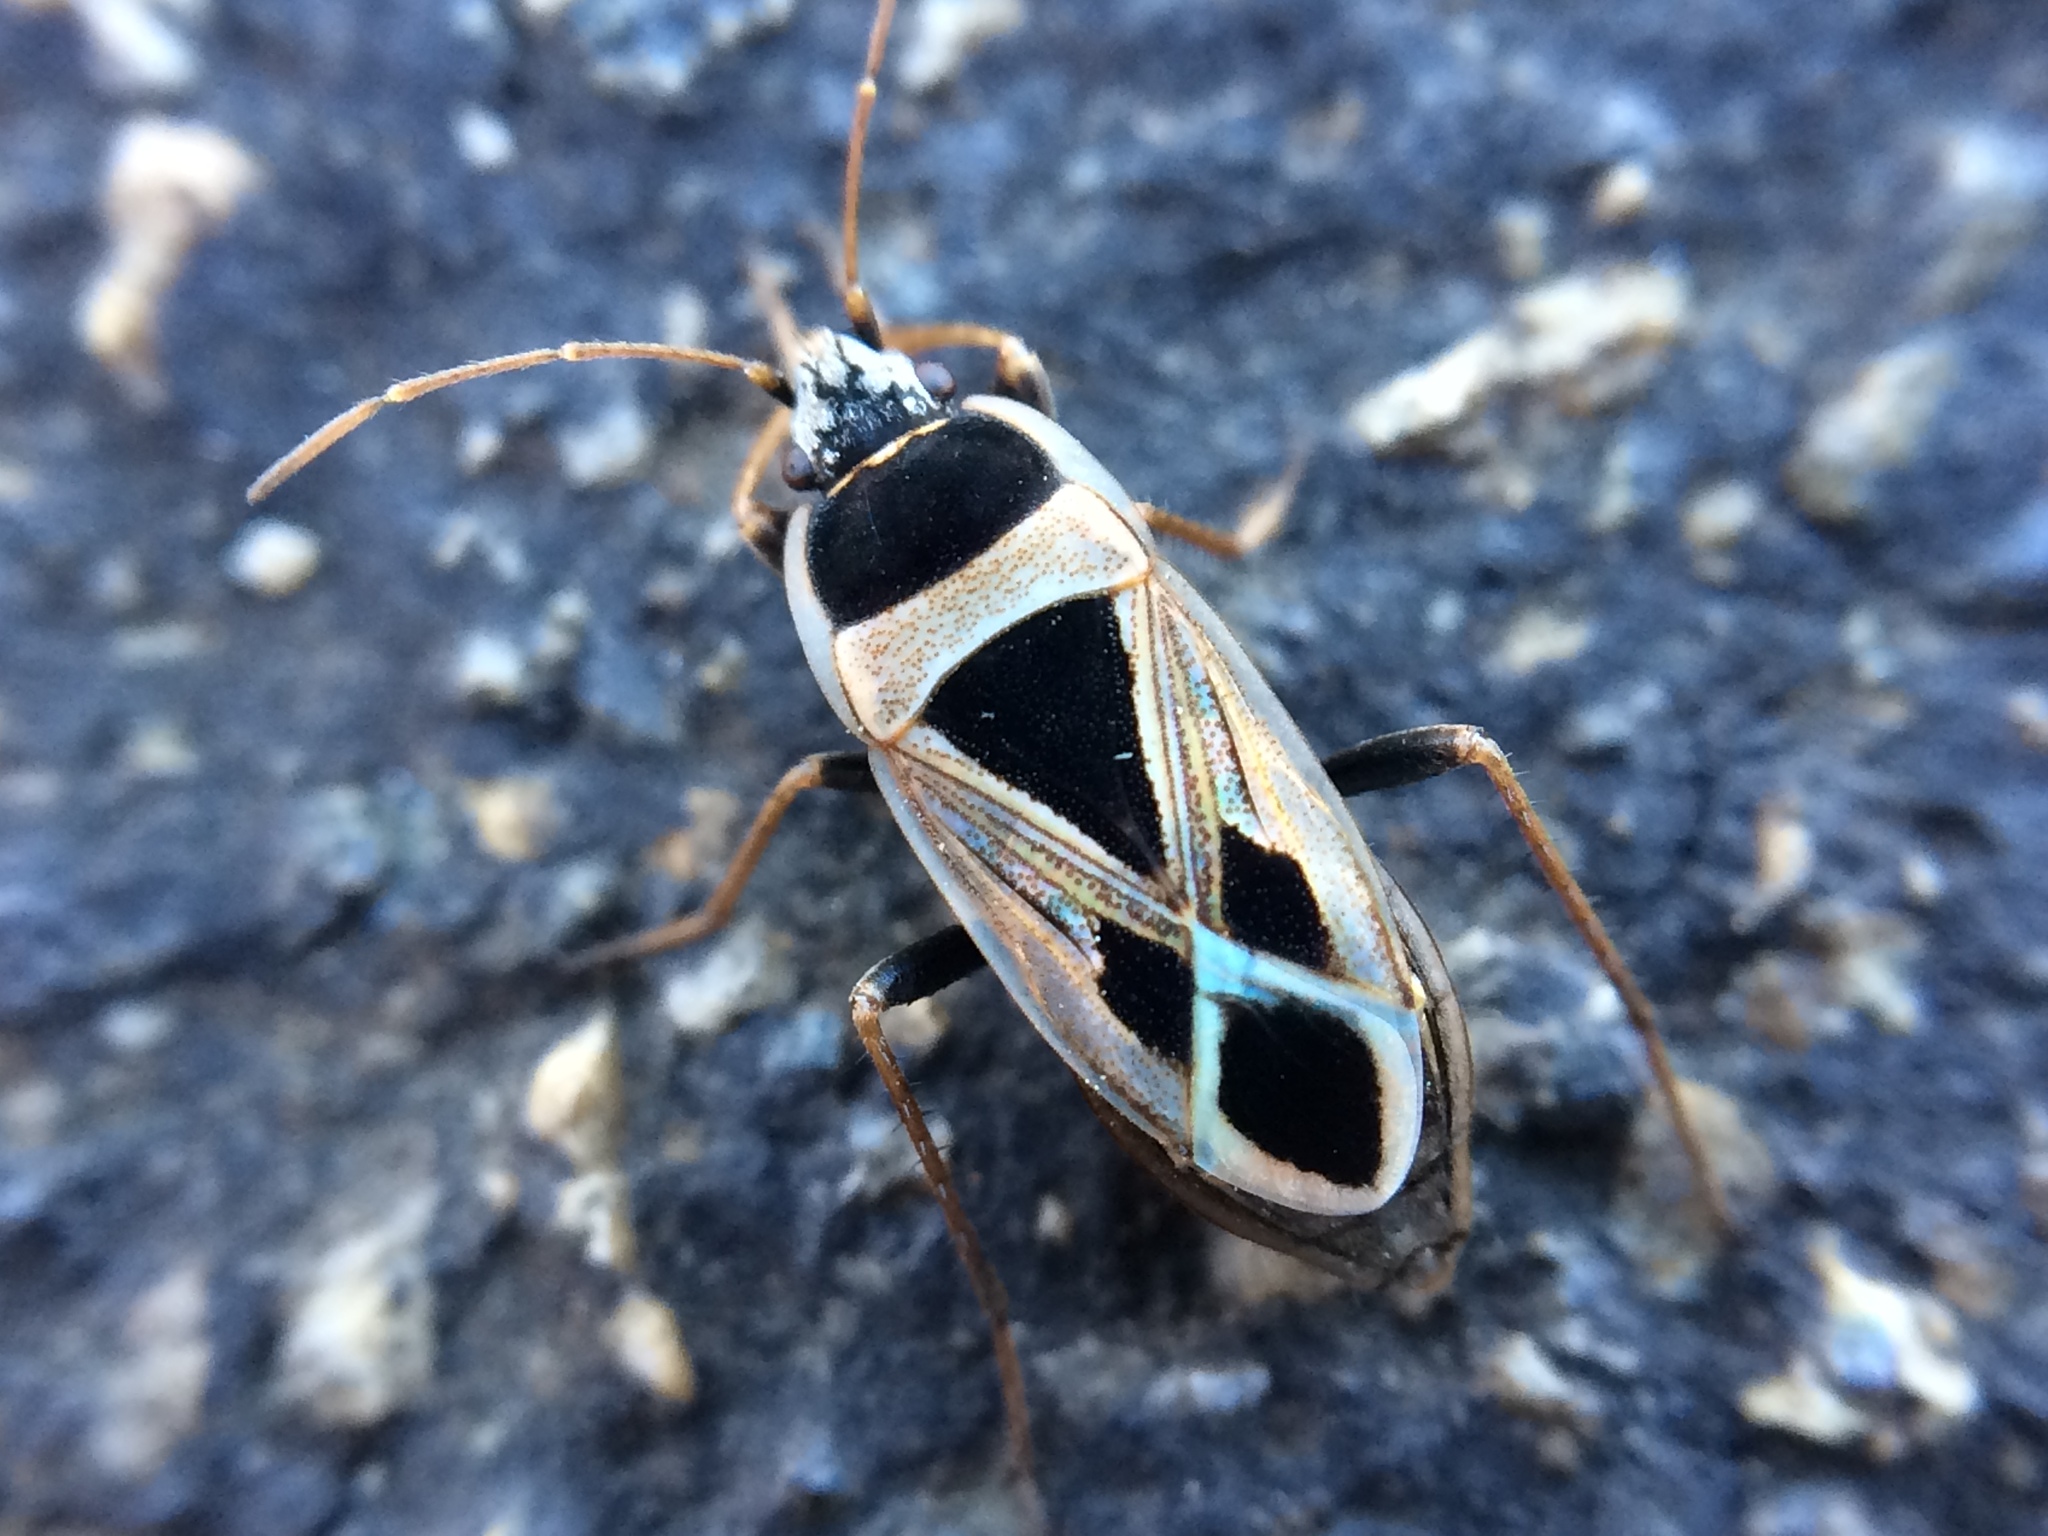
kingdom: Animalia
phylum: Arthropoda
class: Insecta
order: Hemiptera
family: Rhyparochromidae
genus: Xanthochilus
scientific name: Xanthochilus saturnius
